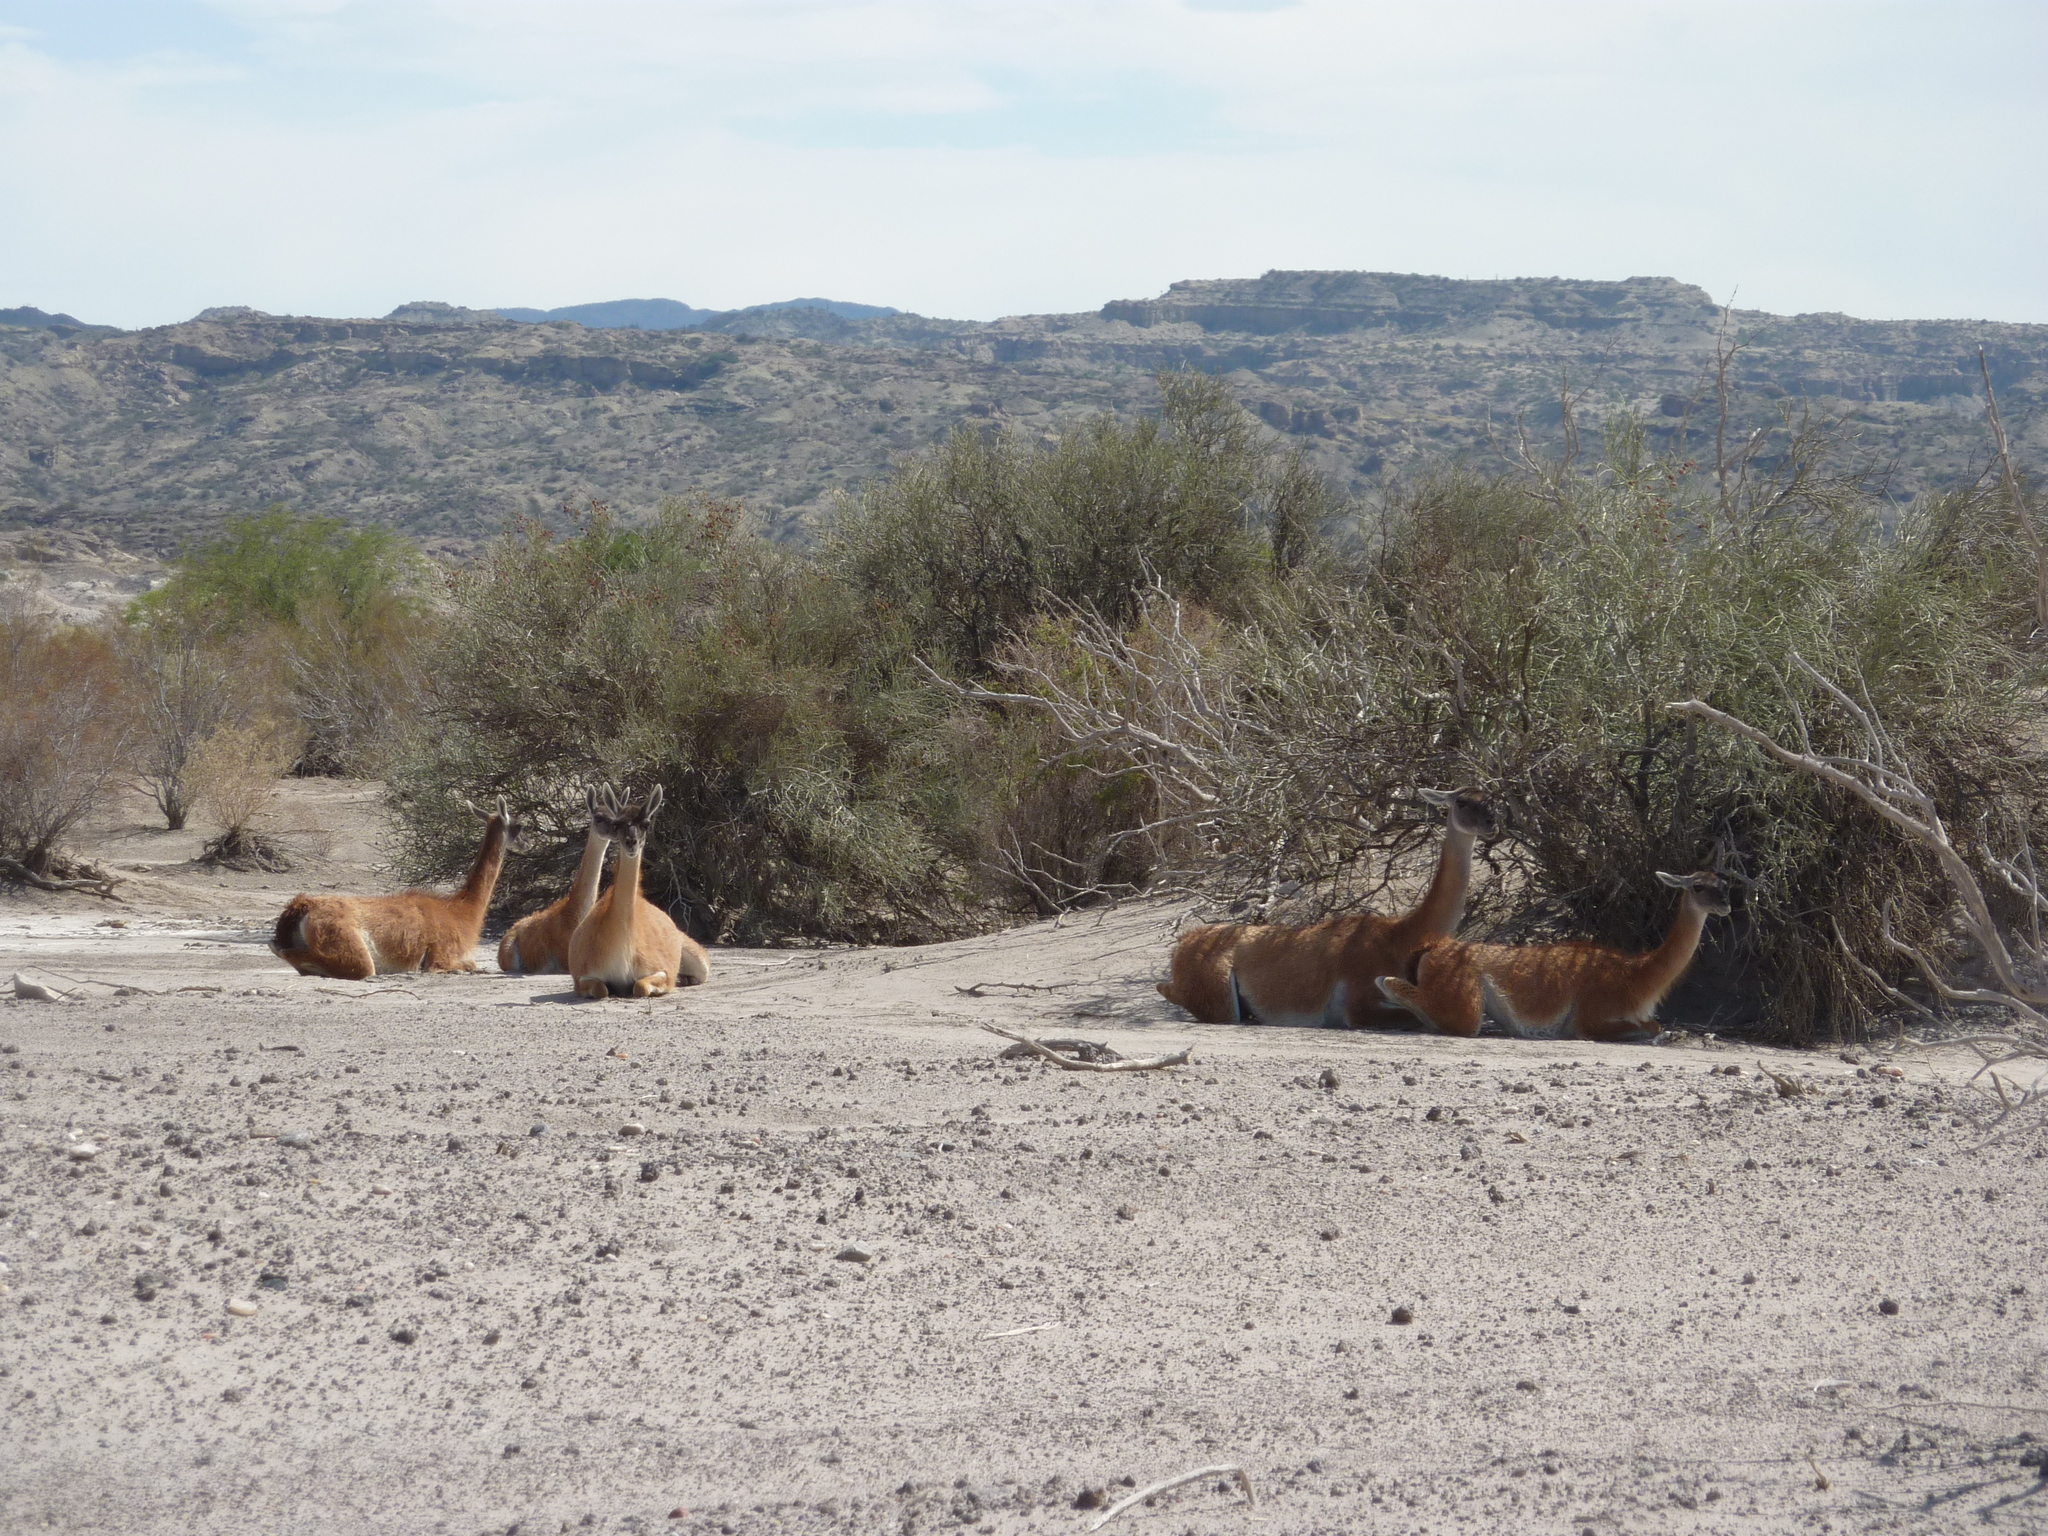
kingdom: Animalia
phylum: Chordata
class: Mammalia
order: Artiodactyla
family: Camelidae
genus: Lama
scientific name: Lama glama
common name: Llama
